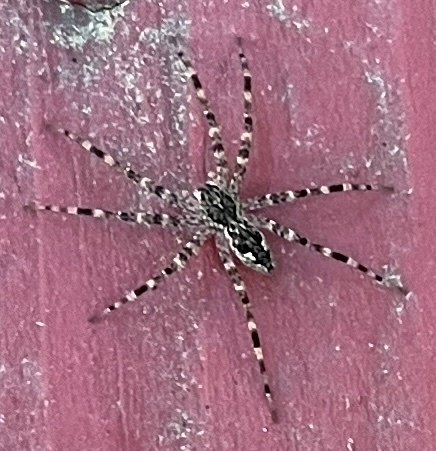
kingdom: Animalia
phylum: Arthropoda
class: Arachnida
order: Araneae
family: Pisauridae
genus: Dolomedes
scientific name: Dolomedes tenebrosus
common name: Dark fishing spider
